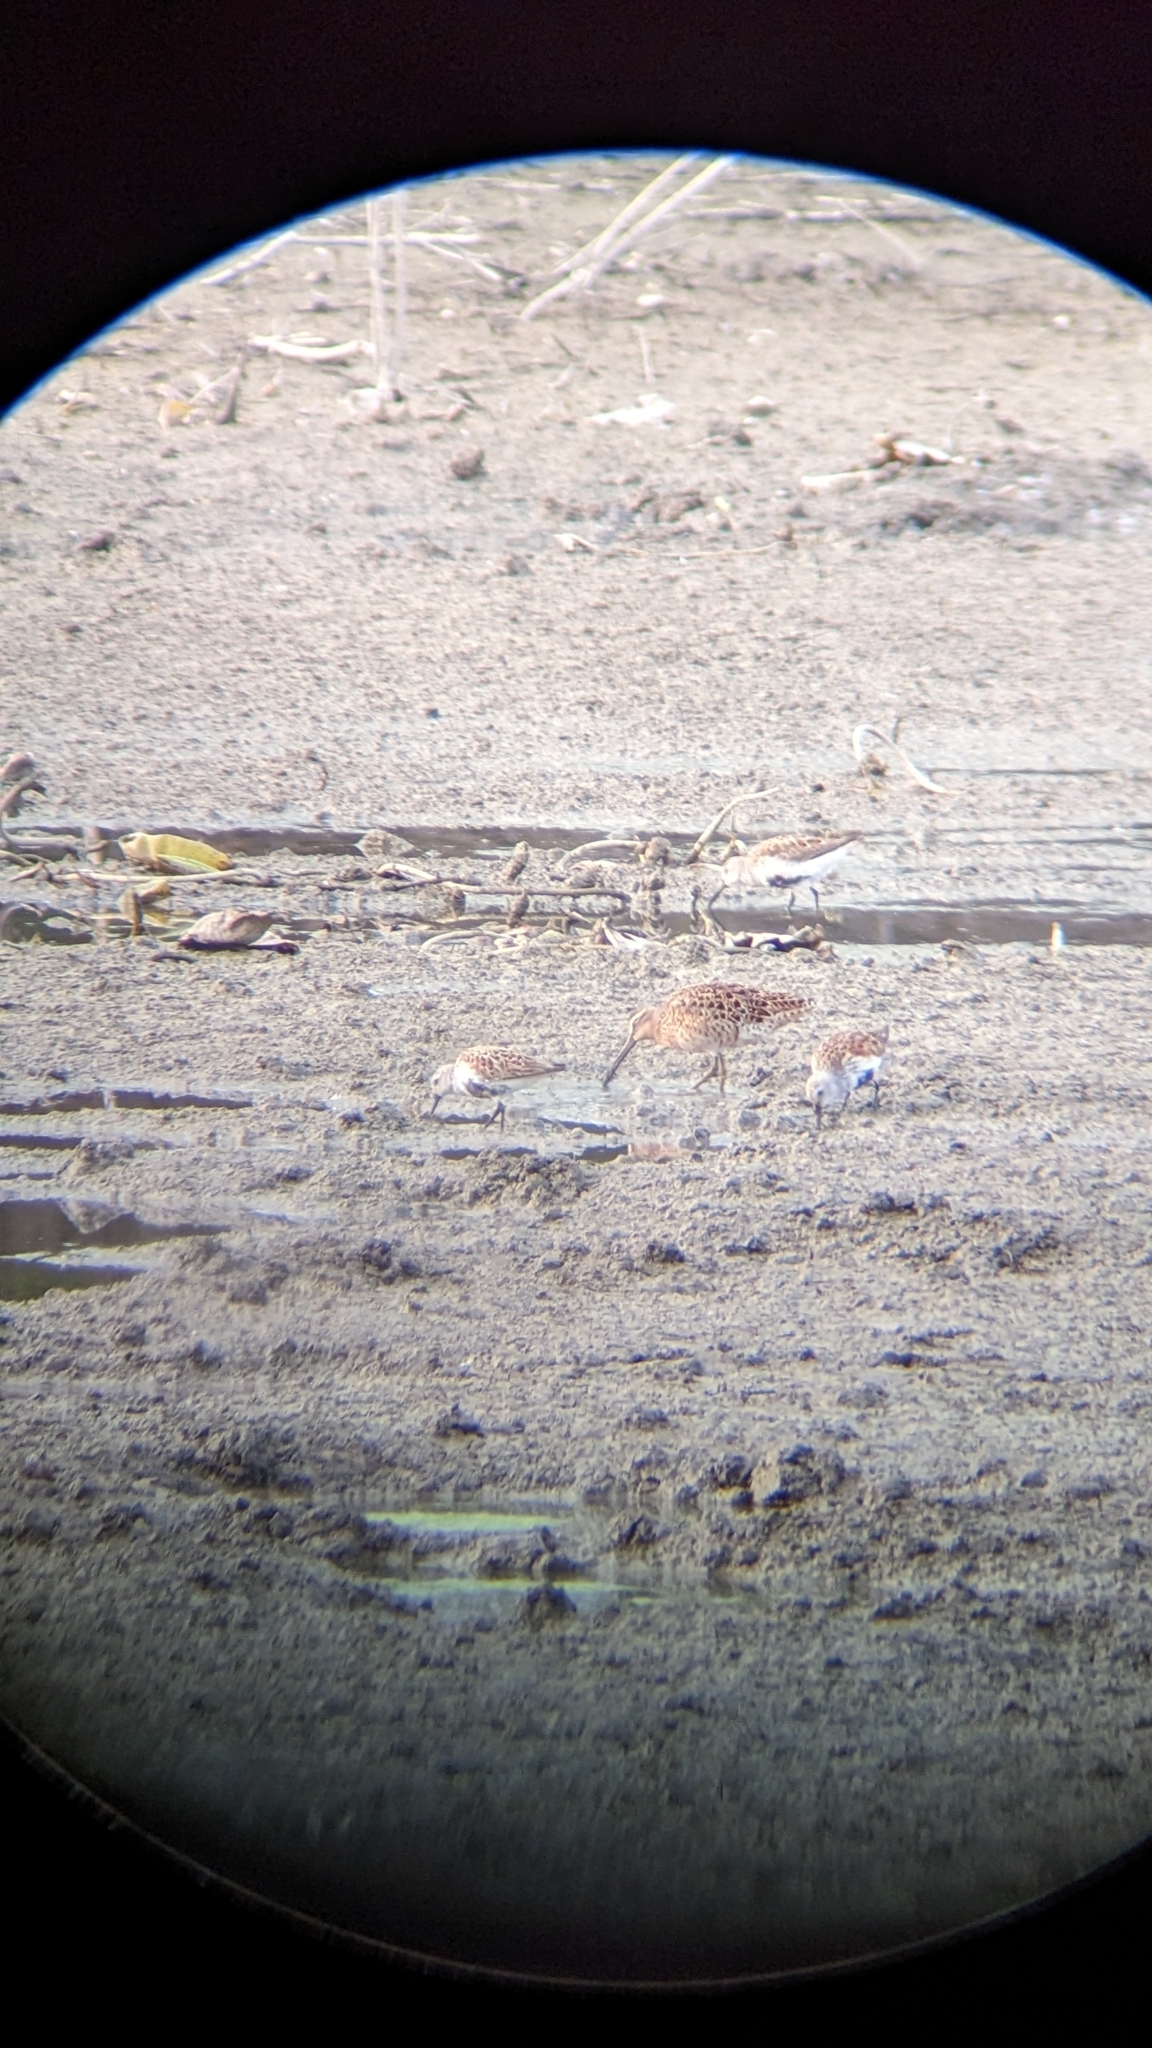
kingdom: Animalia
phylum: Chordata
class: Aves
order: Charadriiformes
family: Scolopacidae
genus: Calidris
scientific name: Calidris alpina
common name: Dunlin
